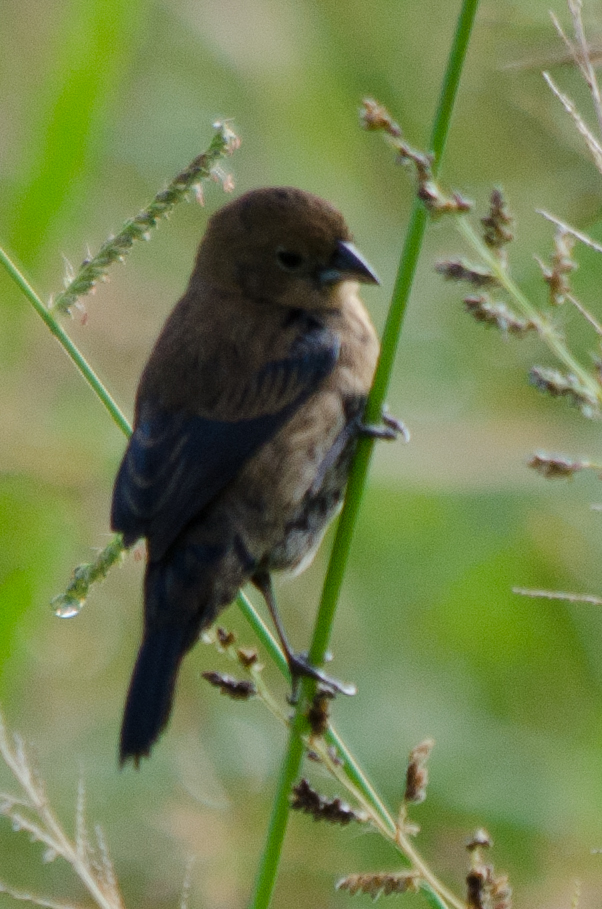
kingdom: Animalia
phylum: Chordata
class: Aves
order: Passeriformes
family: Thraupidae
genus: Volatinia
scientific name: Volatinia jacarina
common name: Blue-black grassquit
